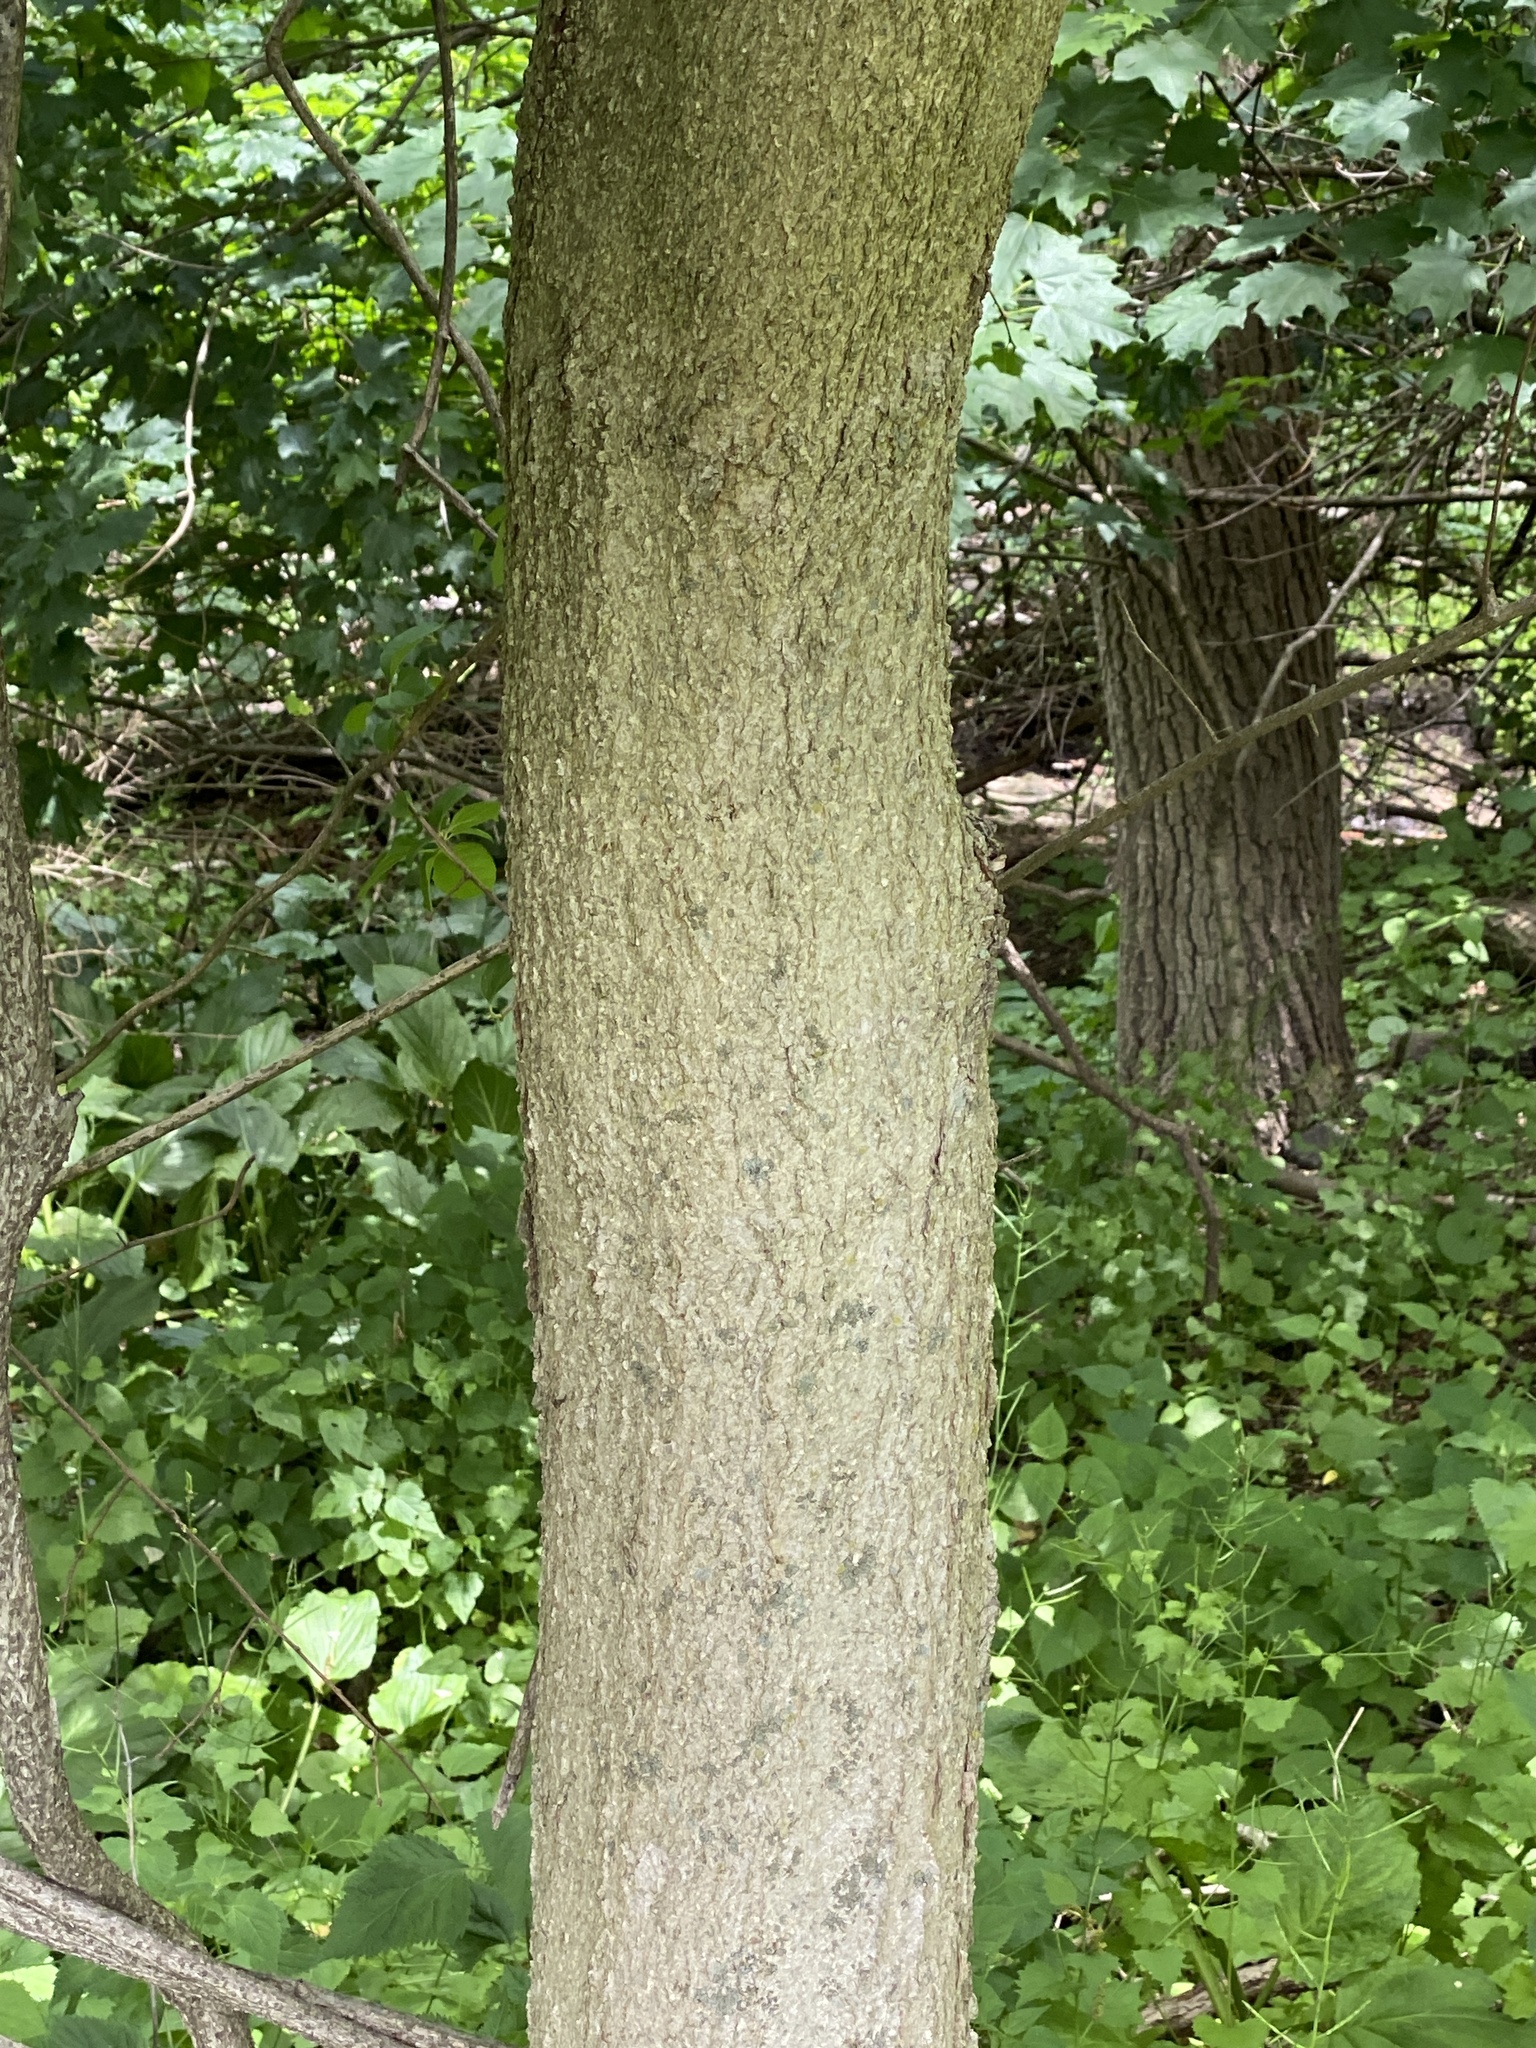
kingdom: Plantae
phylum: Tracheophyta
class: Magnoliopsida
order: Sapindales
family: Sapindaceae
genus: Aesculus
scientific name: Aesculus flava
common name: Yellow buckeye
